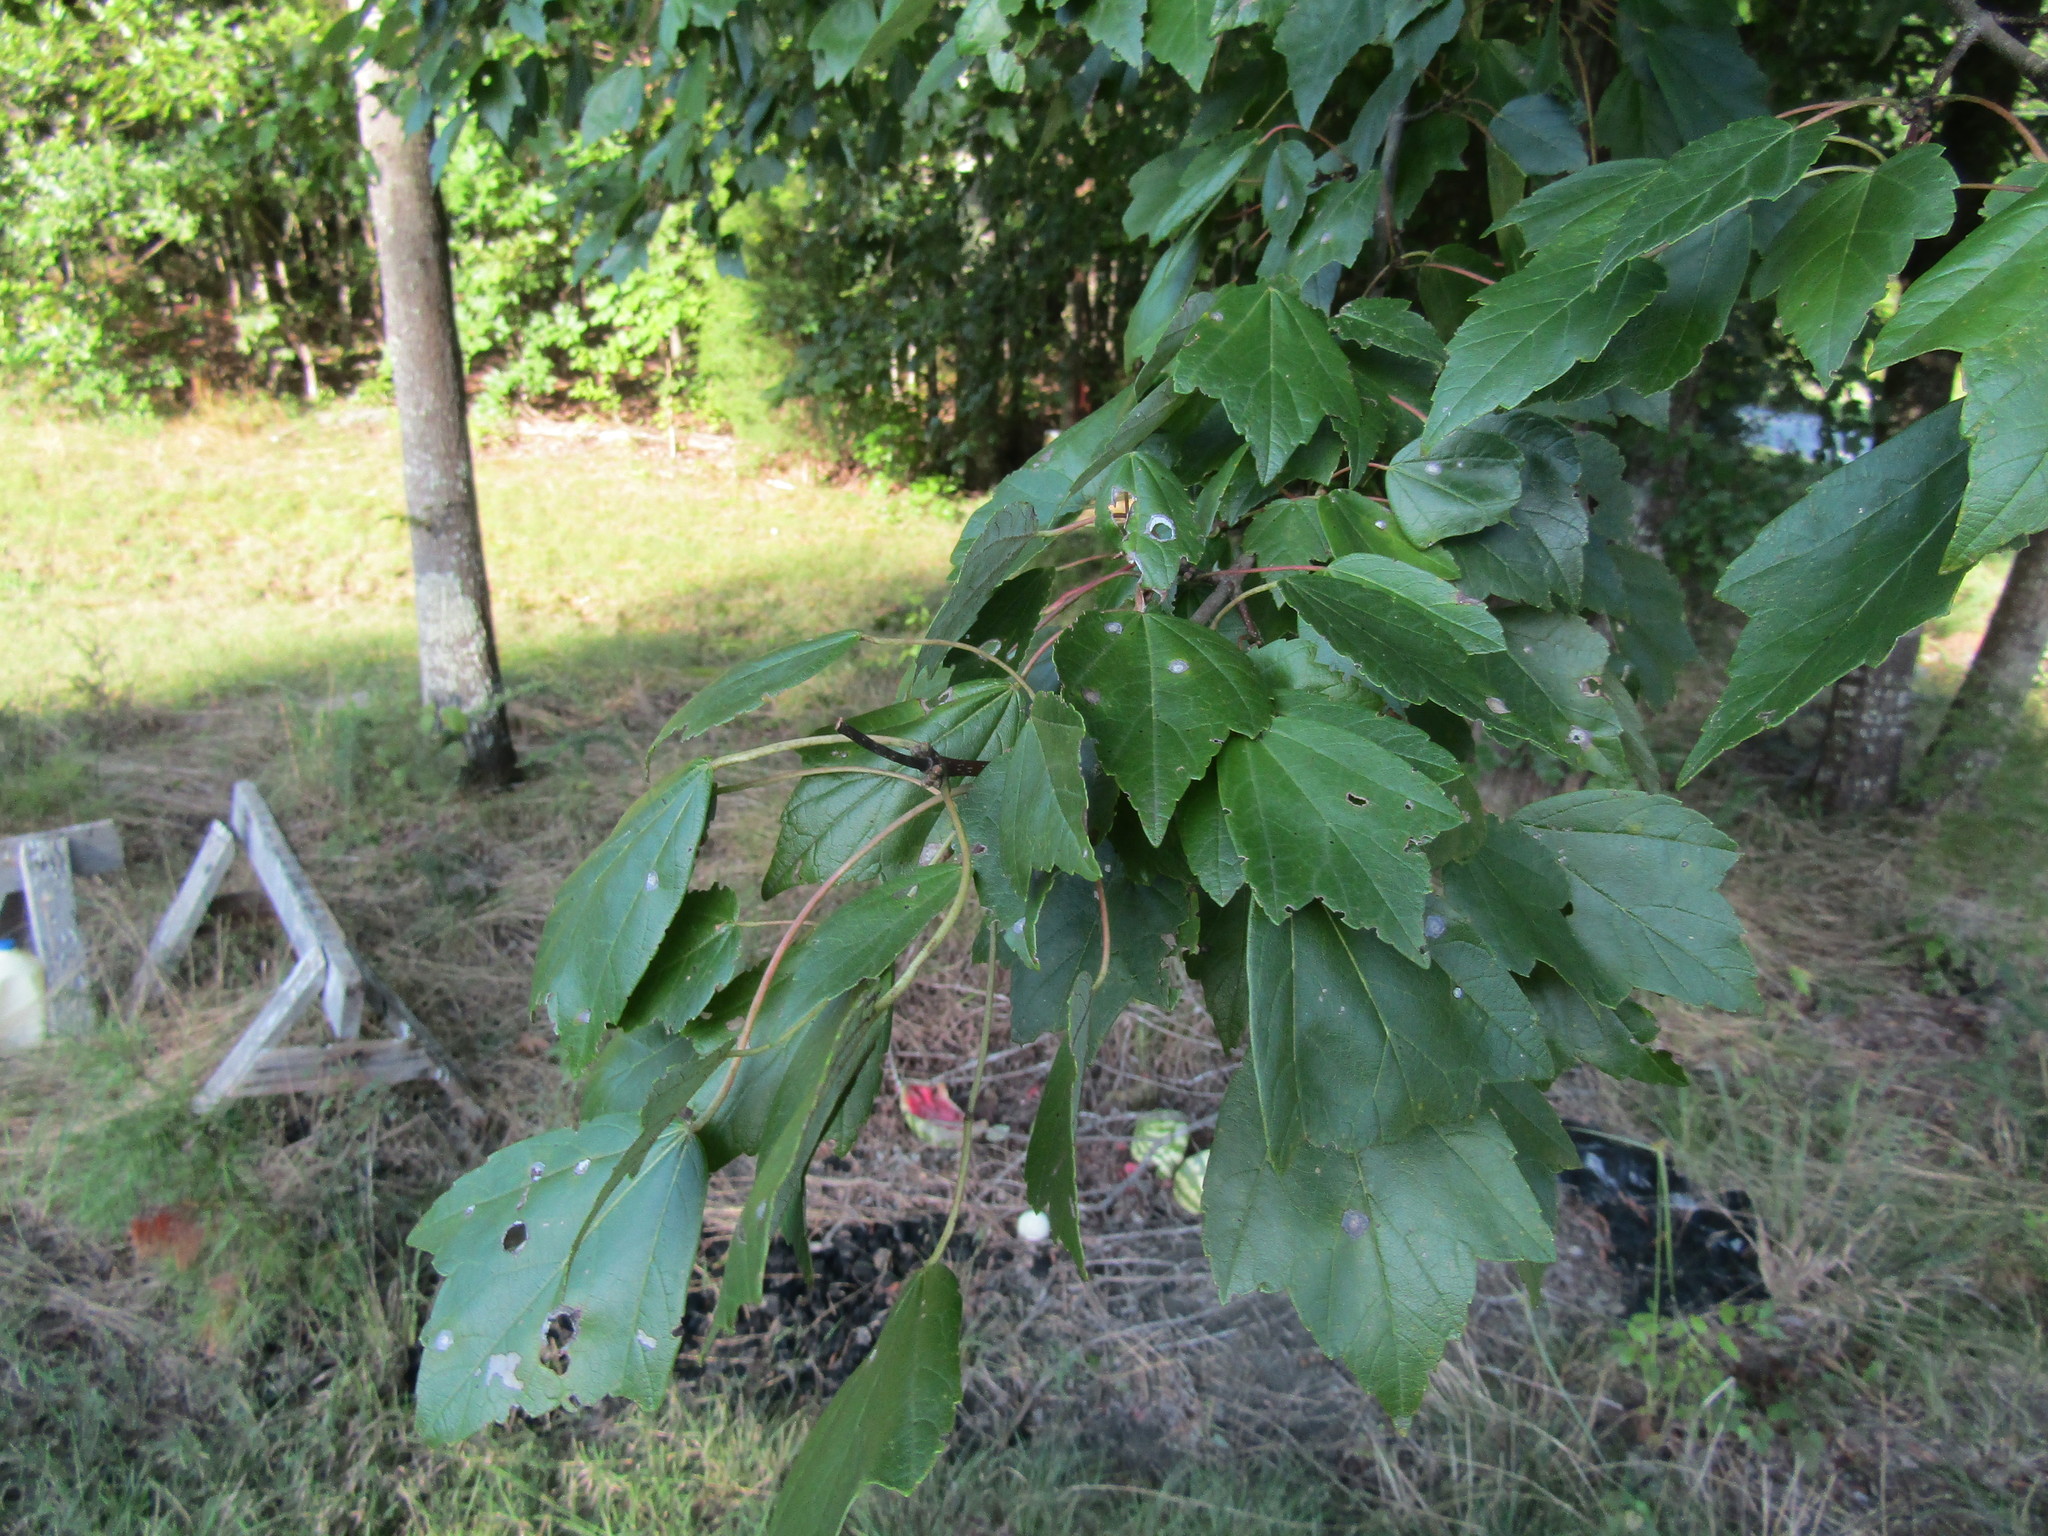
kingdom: Plantae
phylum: Tracheophyta
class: Magnoliopsida
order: Sapindales
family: Sapindaceae
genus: Acer
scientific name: Acer rubrum
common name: Red maple
